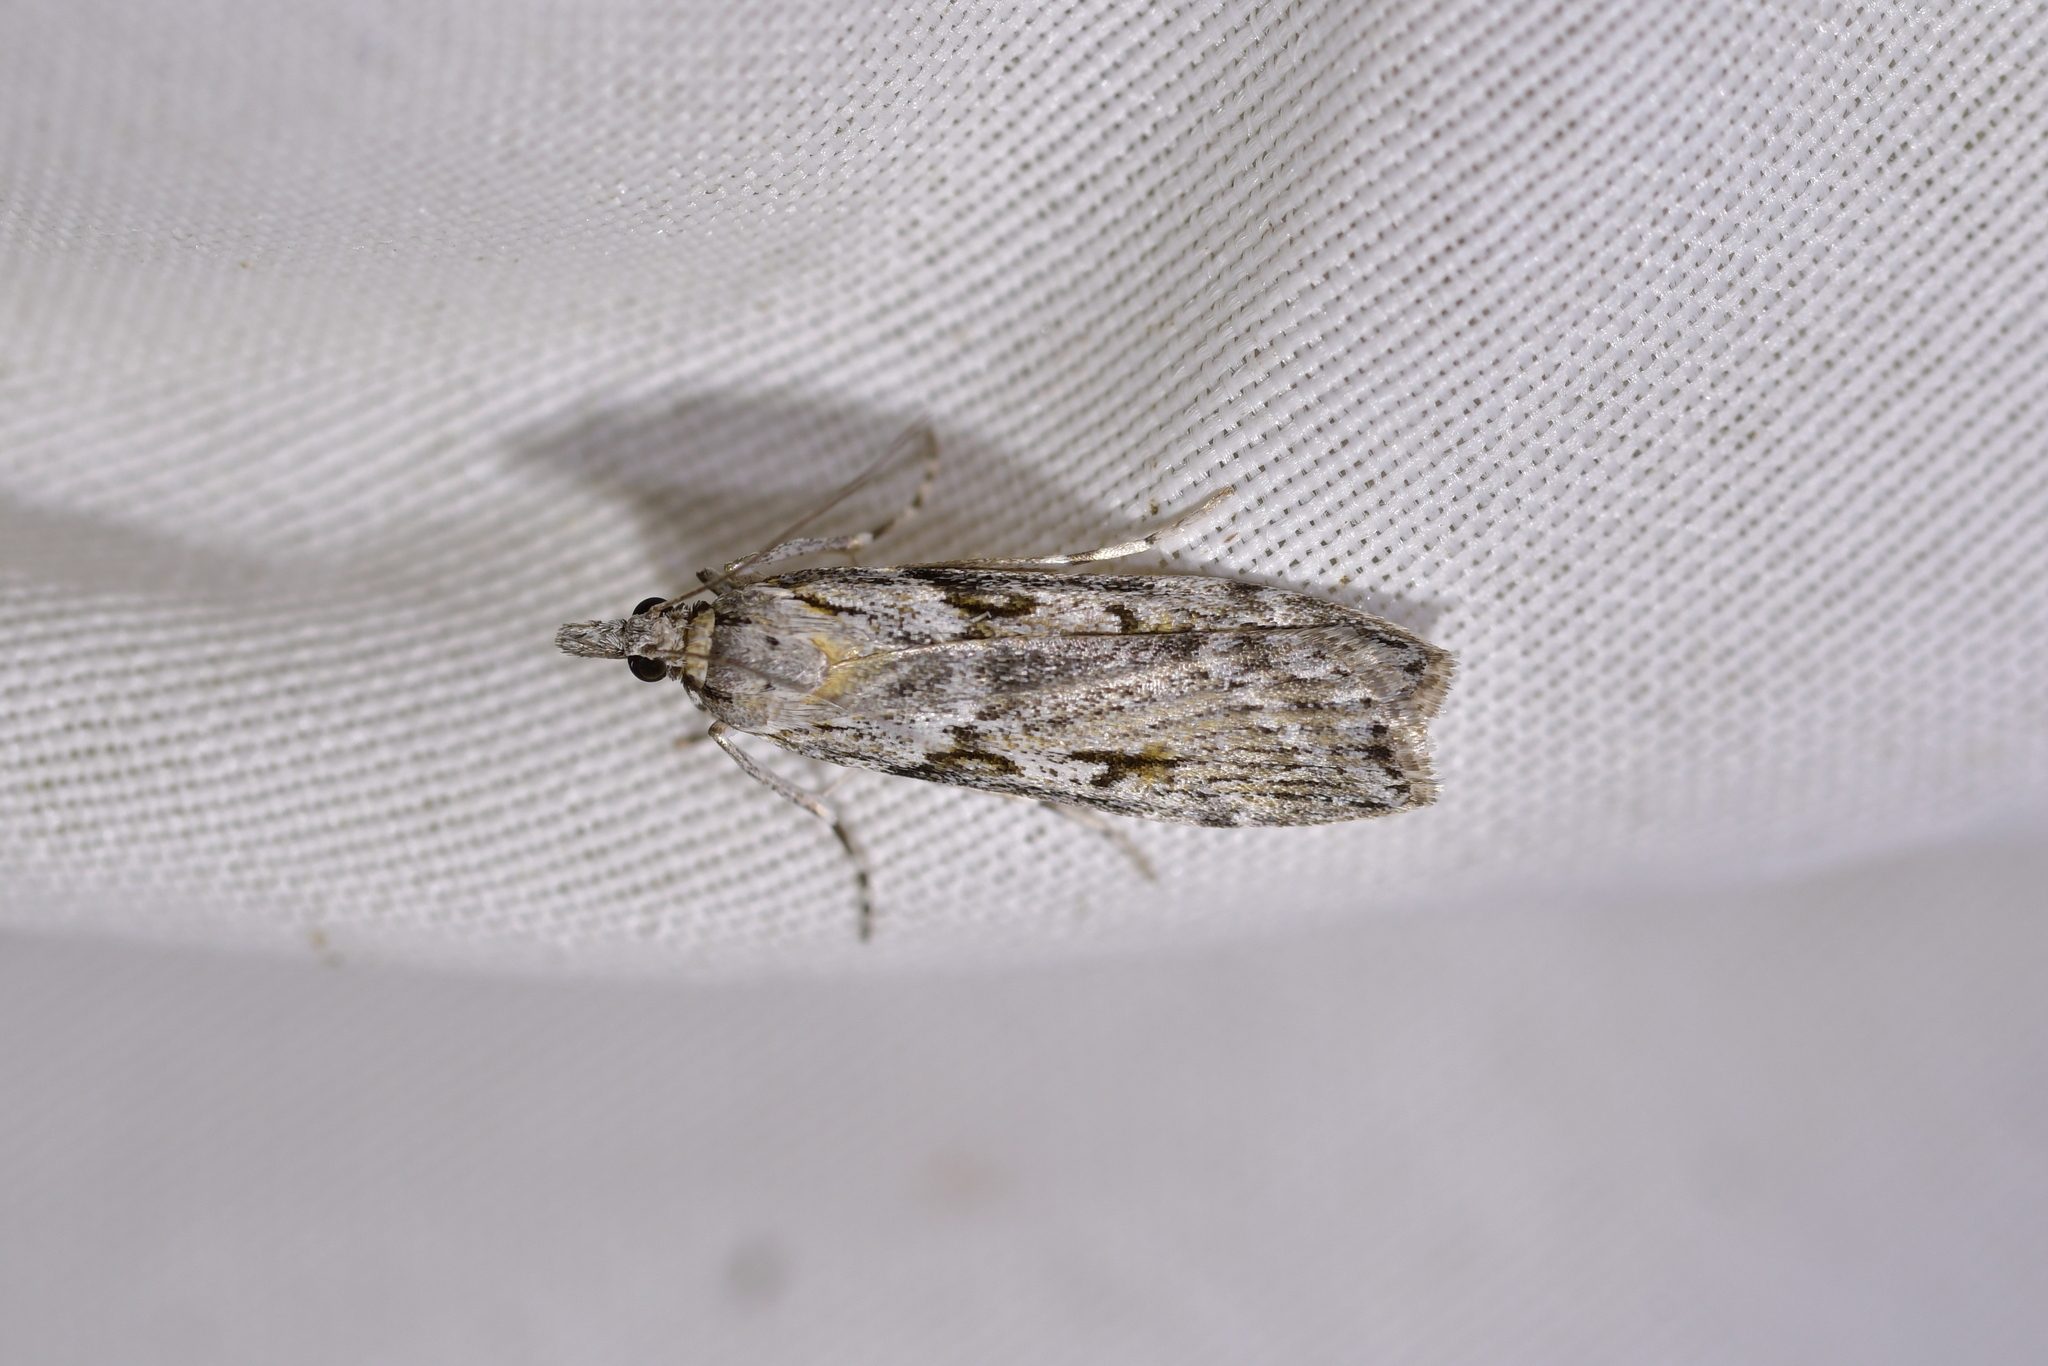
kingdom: Animalia
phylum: Arthropoda
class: Insecta
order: Lepidoptera
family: Crambidae
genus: Scoparia
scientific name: Scoparia halopis
